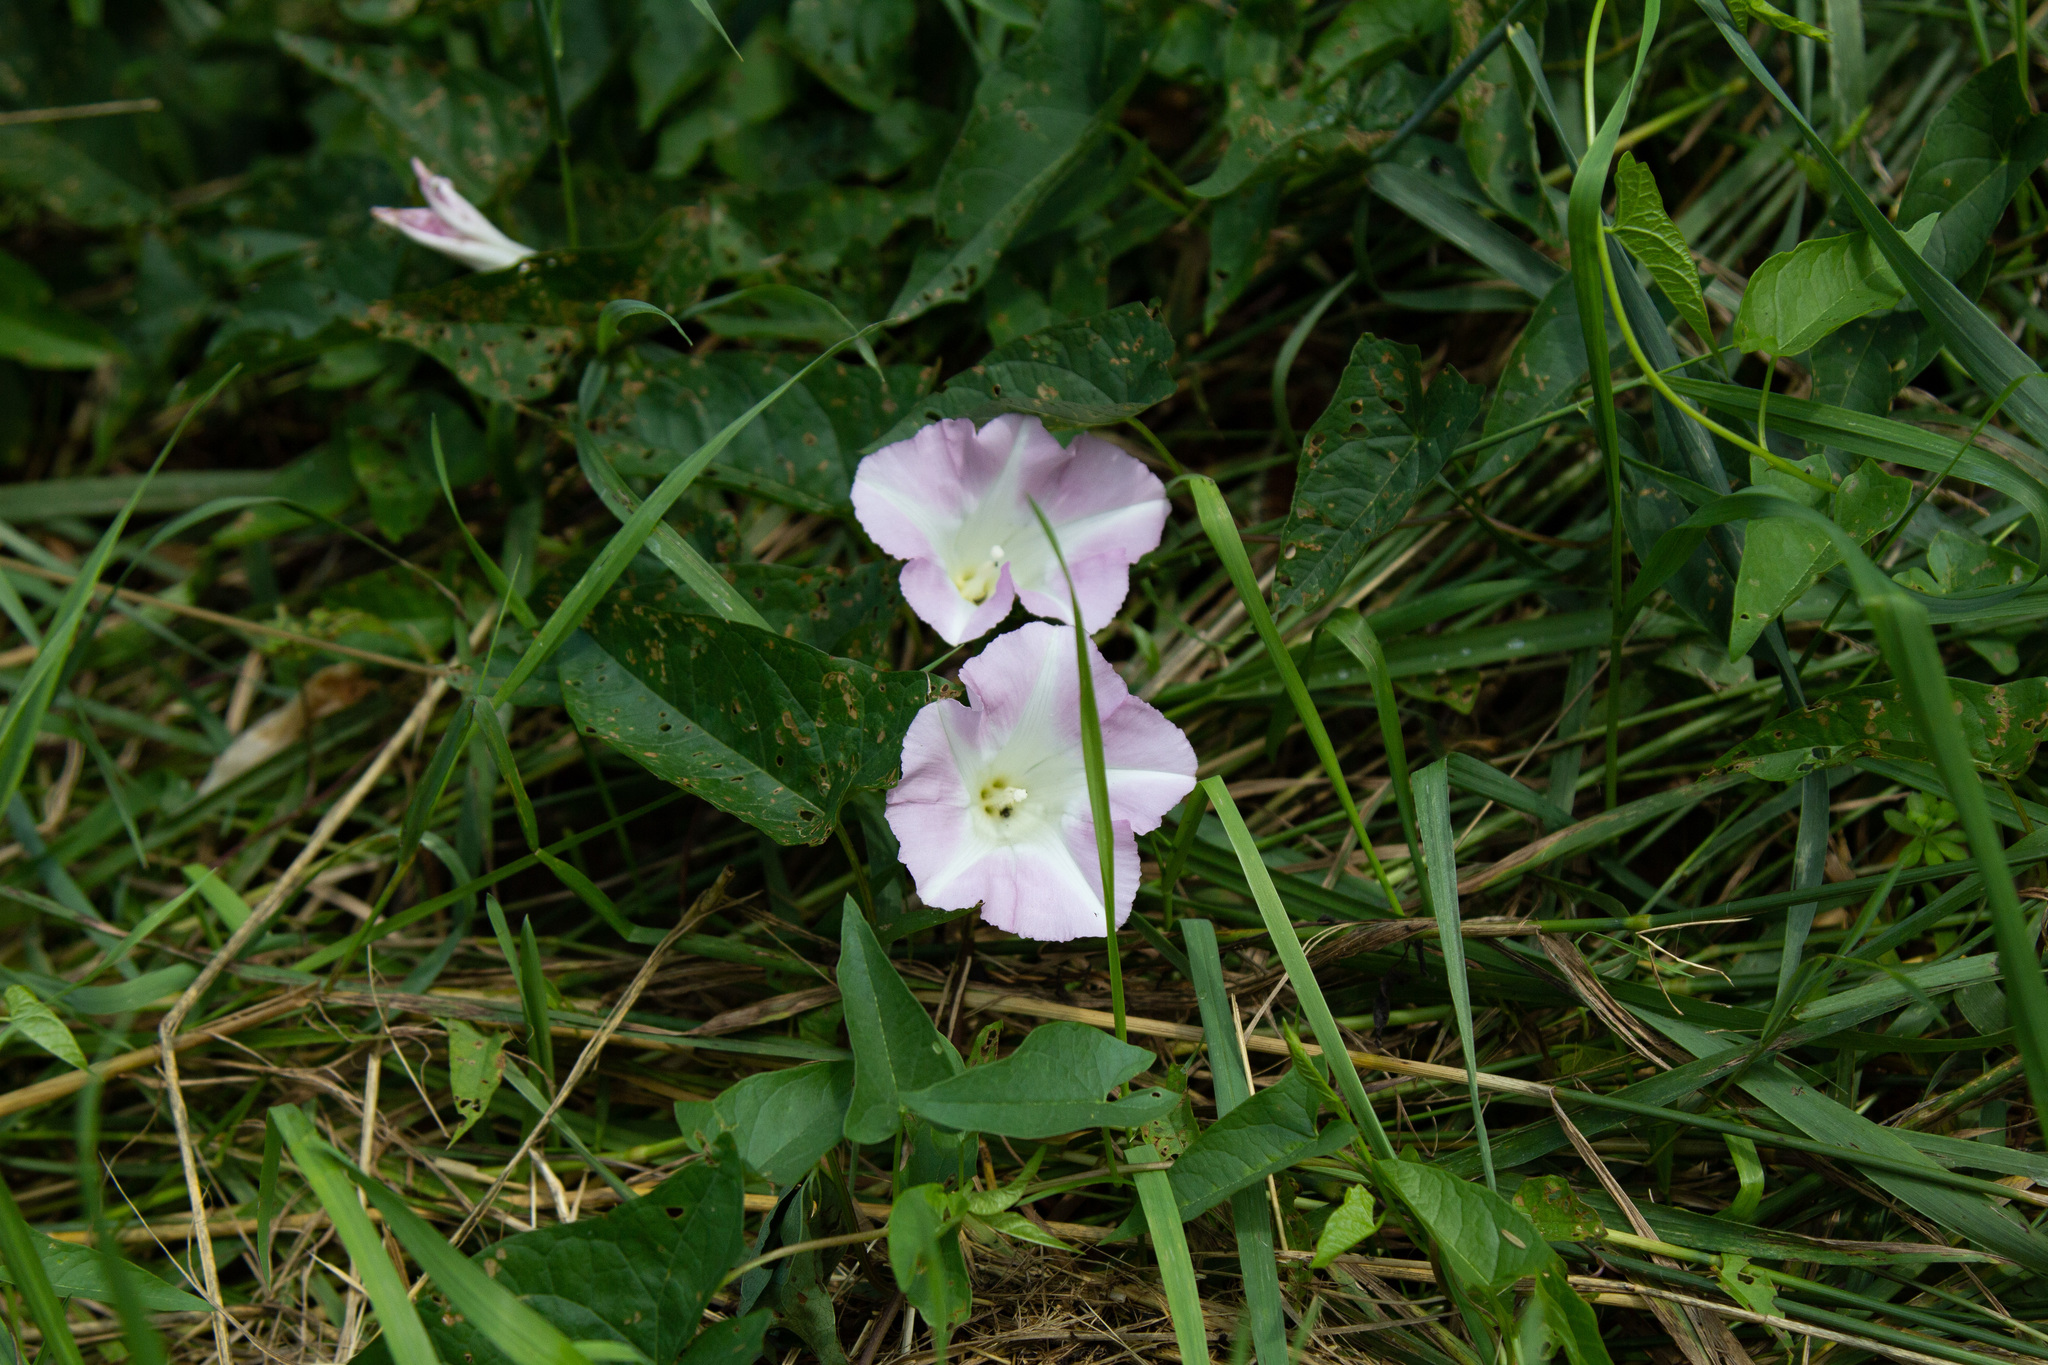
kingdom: Plantae
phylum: Tracheophyta
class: Magnoliopsida
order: Solanales
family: Convolvulaceae
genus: Calystegia
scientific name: Calystegia sepium
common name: Hedge bindweed
